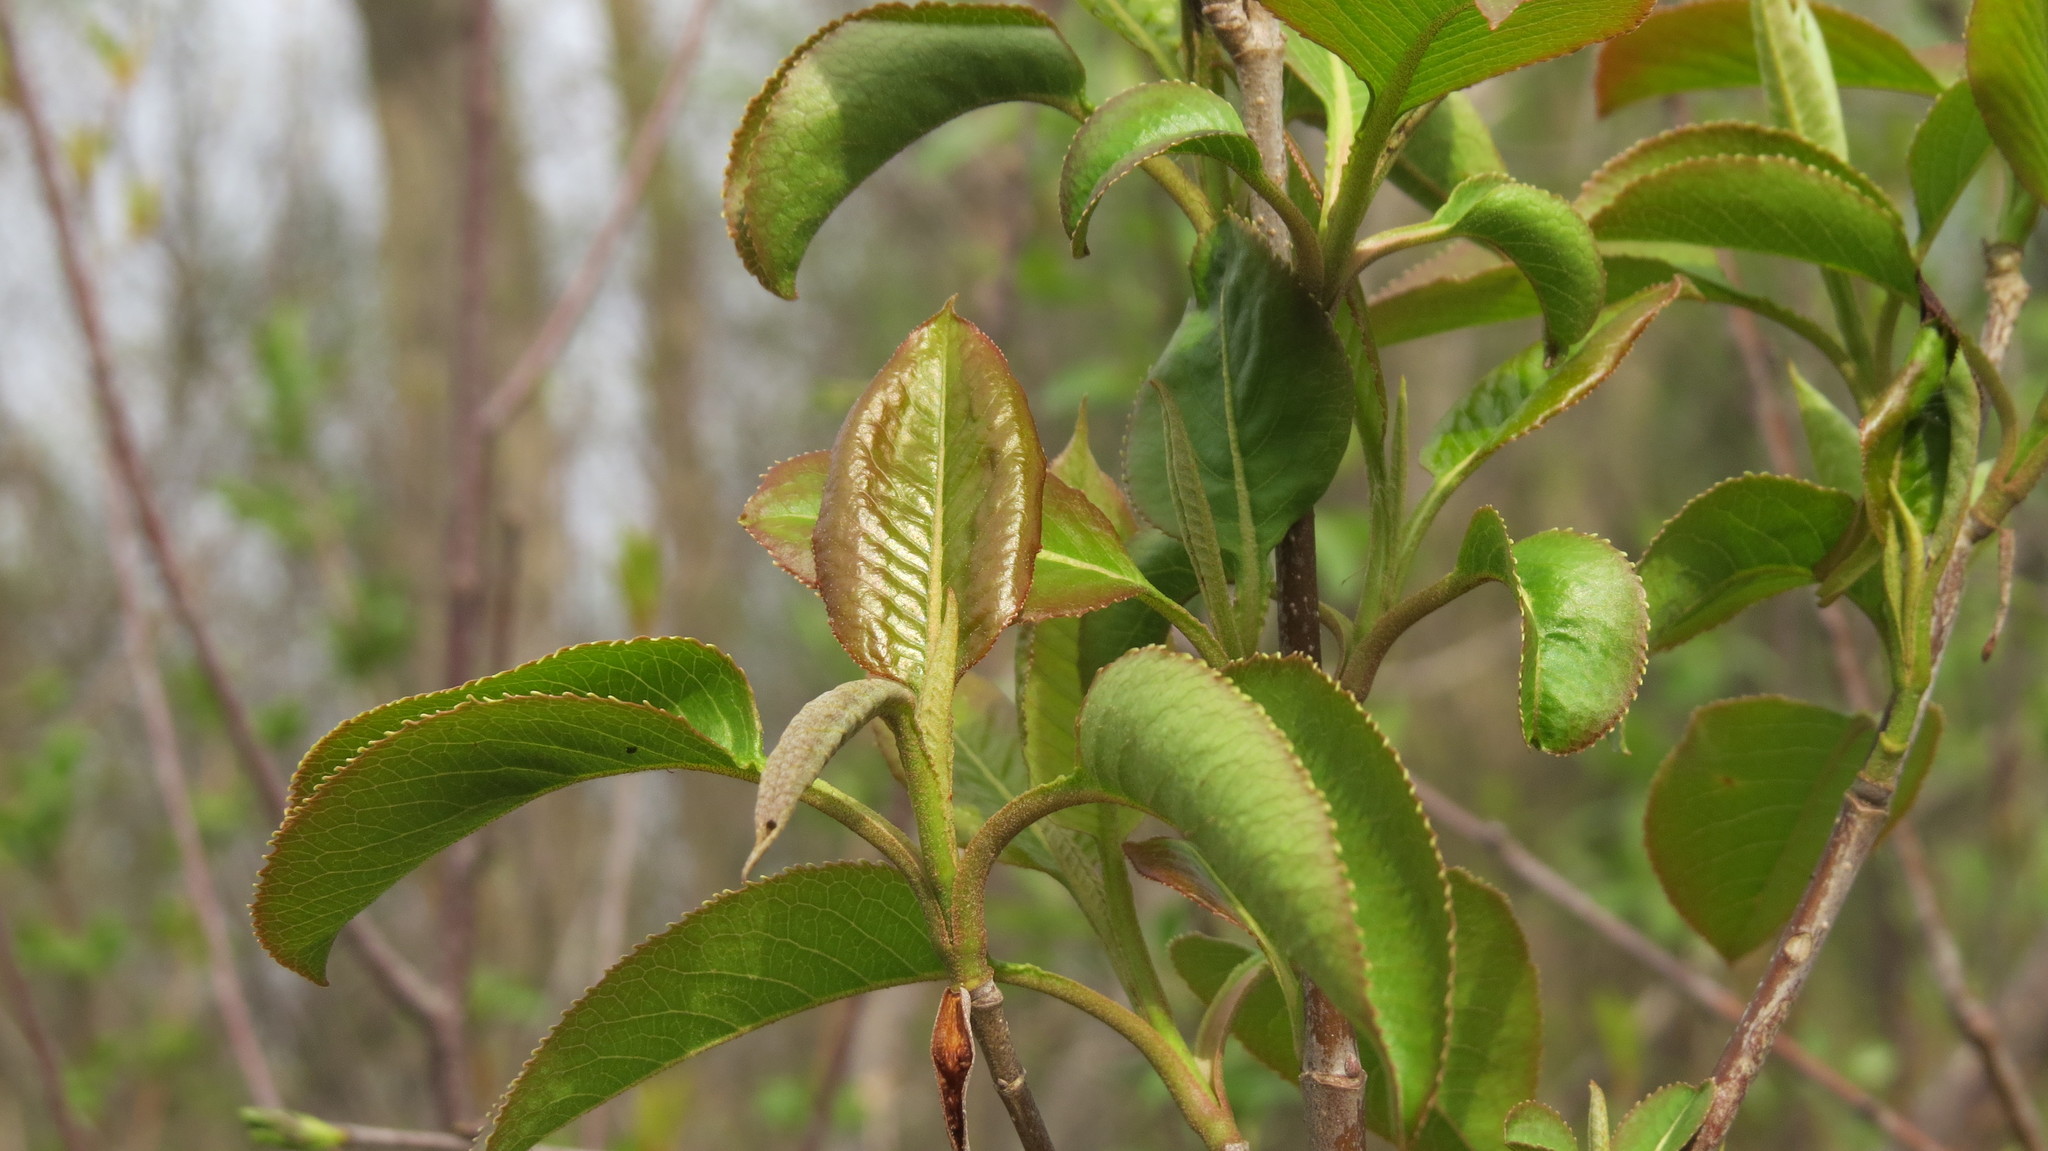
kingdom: Plantae
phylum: Tracheophyta
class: Magnoliopsida
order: Dipsacales
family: Viburnaceae
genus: Viburnum
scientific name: Viburnum lentago
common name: Black haw
